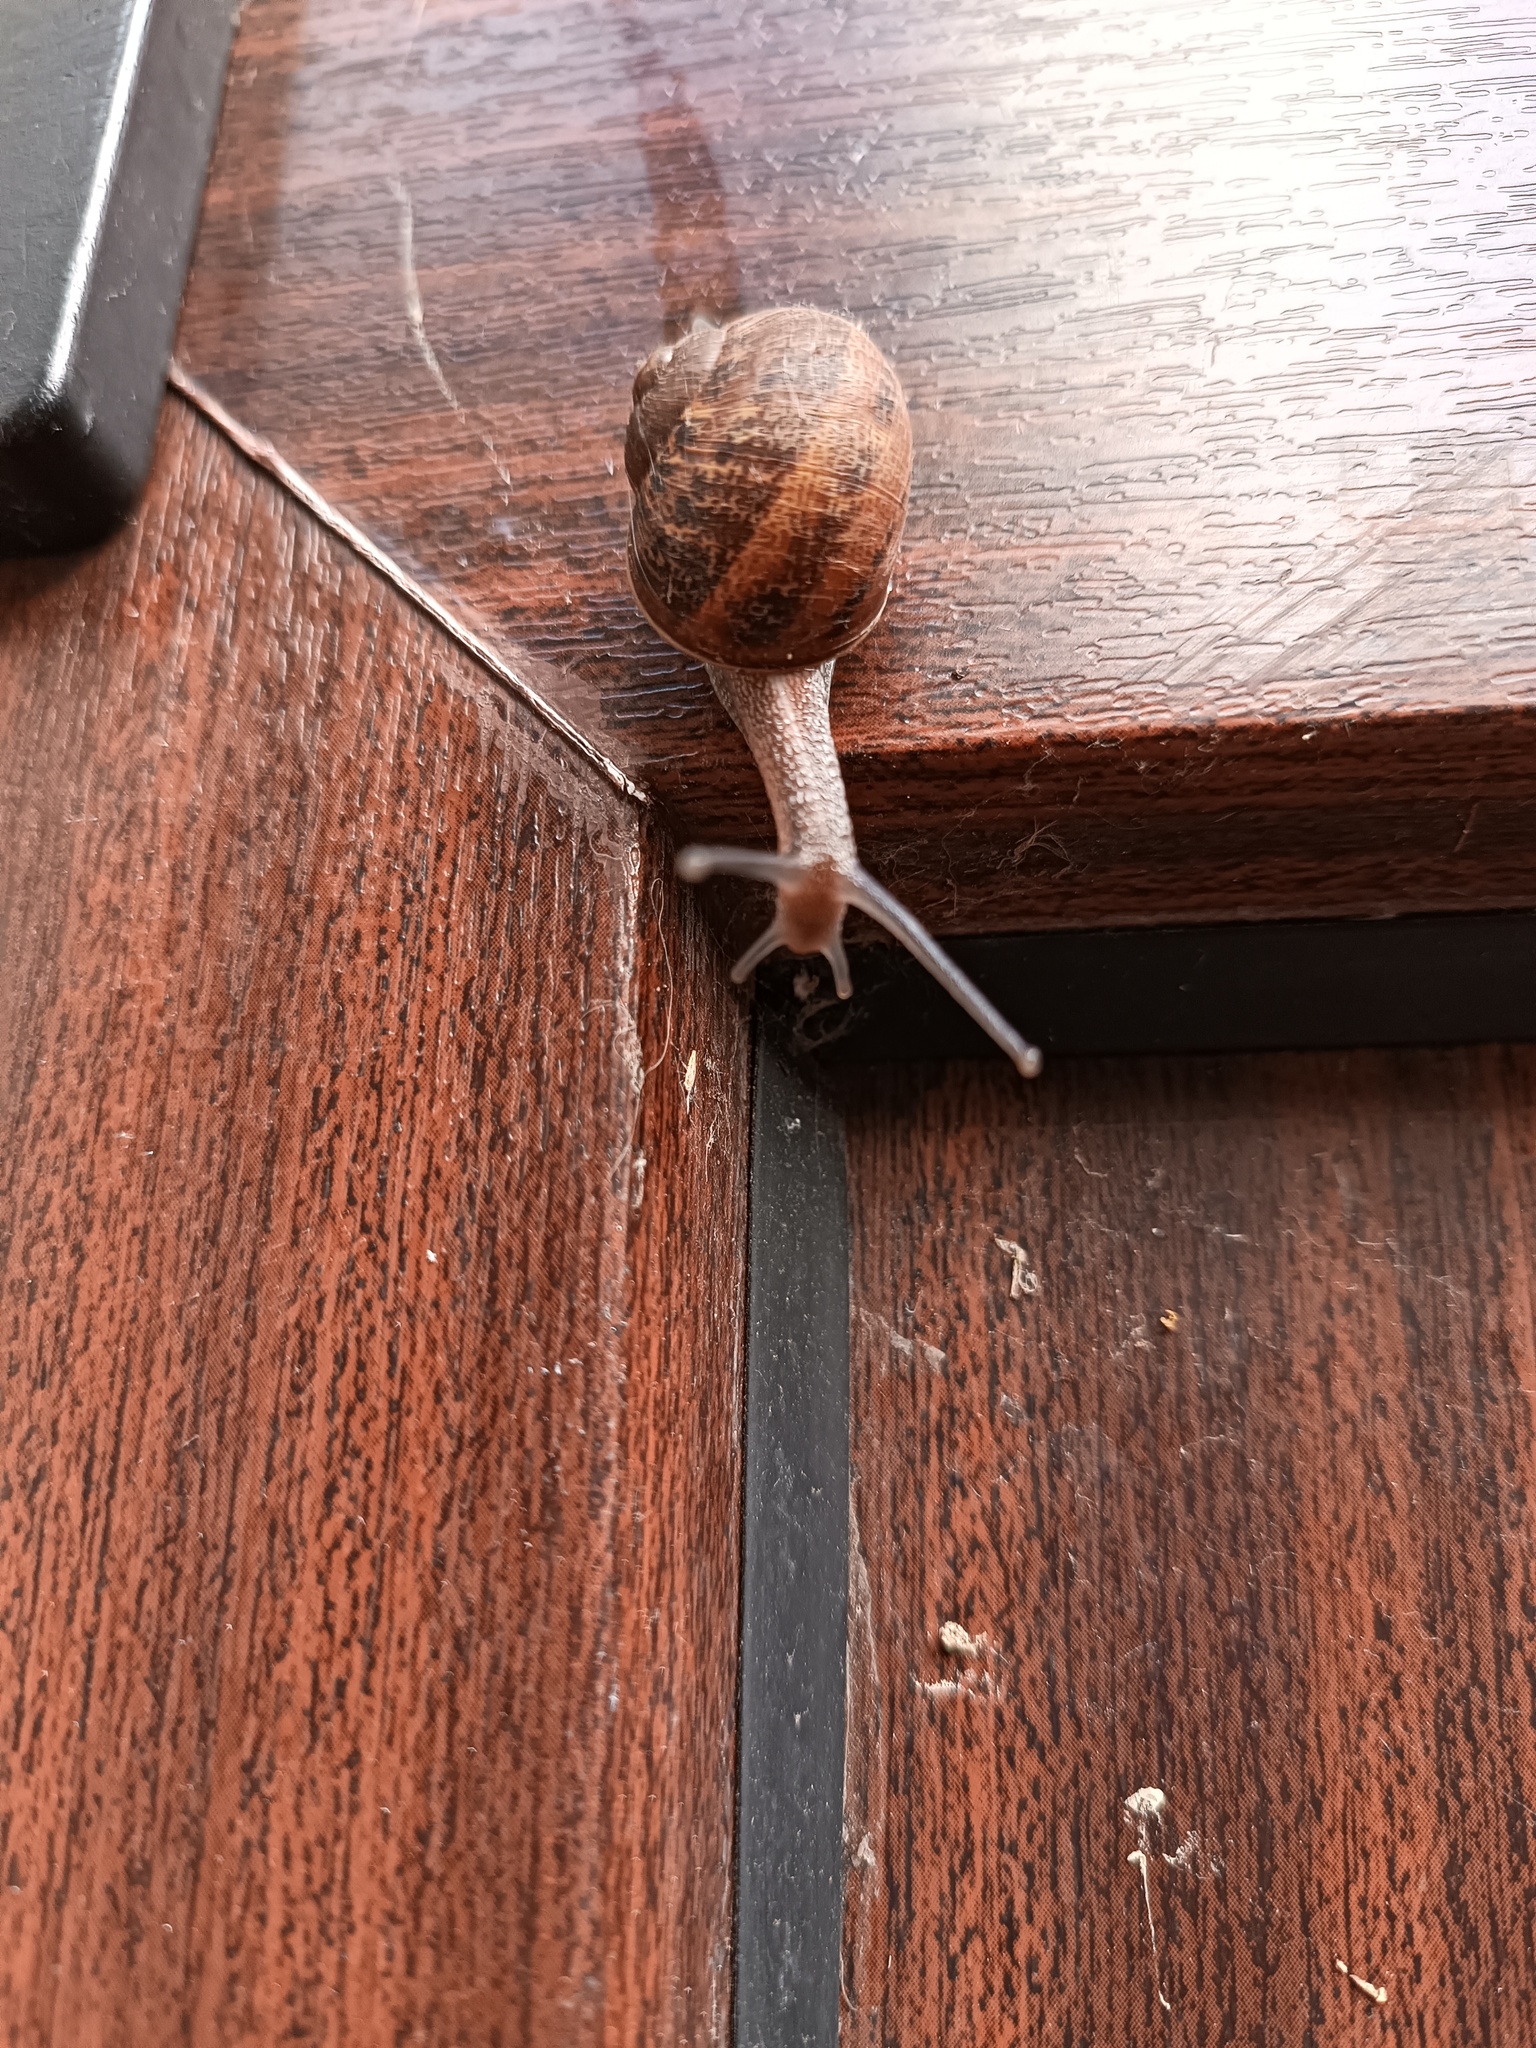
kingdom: Animalia
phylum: Mollusca
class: Gastropoda
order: Stylommatophora
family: Helicidae
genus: Cornu
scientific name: Cornu aspersum
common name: Brown garden snail
